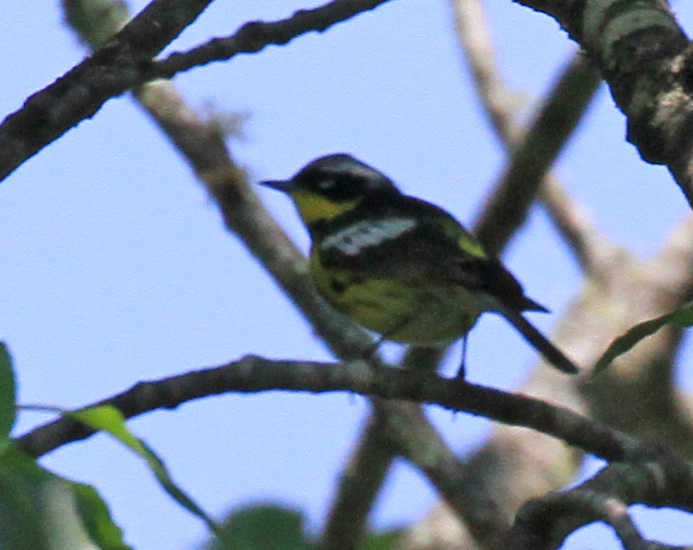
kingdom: Animalia
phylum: Chordata
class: Aves
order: Passeriformes
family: Parulidae
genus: Setophaga
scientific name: Setophaga magnolia
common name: Magnolia warbler
